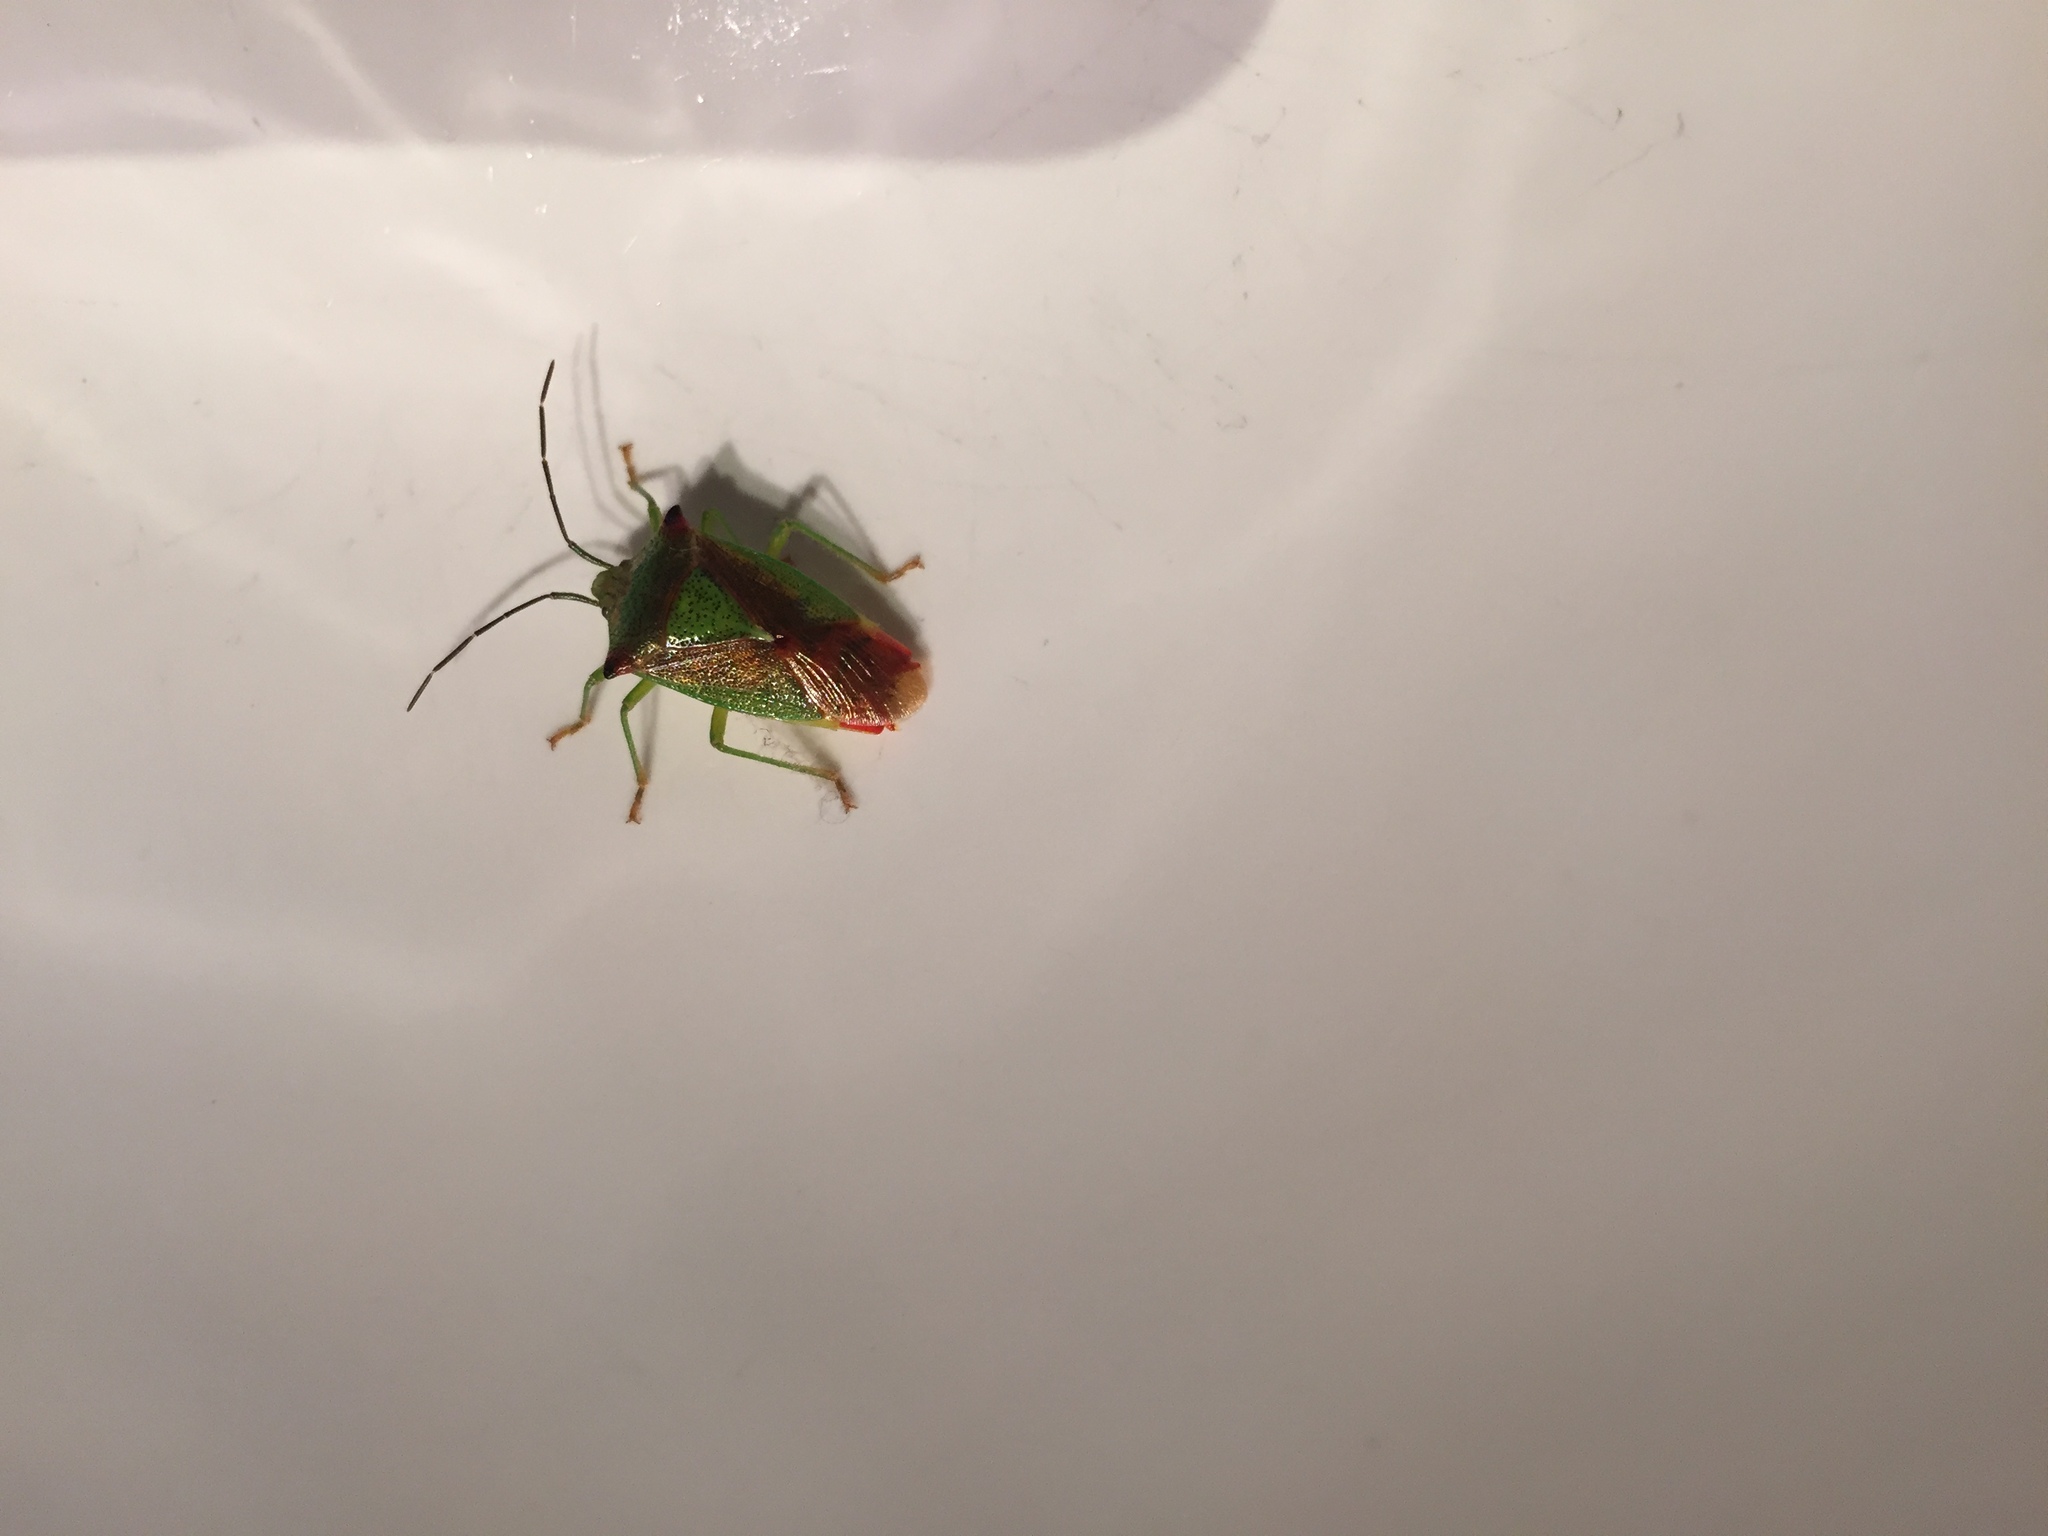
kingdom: Animalia
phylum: Arthropoda
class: Insecta
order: Hemiptera
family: Acanthosomatidae
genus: Acanthosoma
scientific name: Acanthosoma haemorrhoidale
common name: Hawthorn shieldbug
